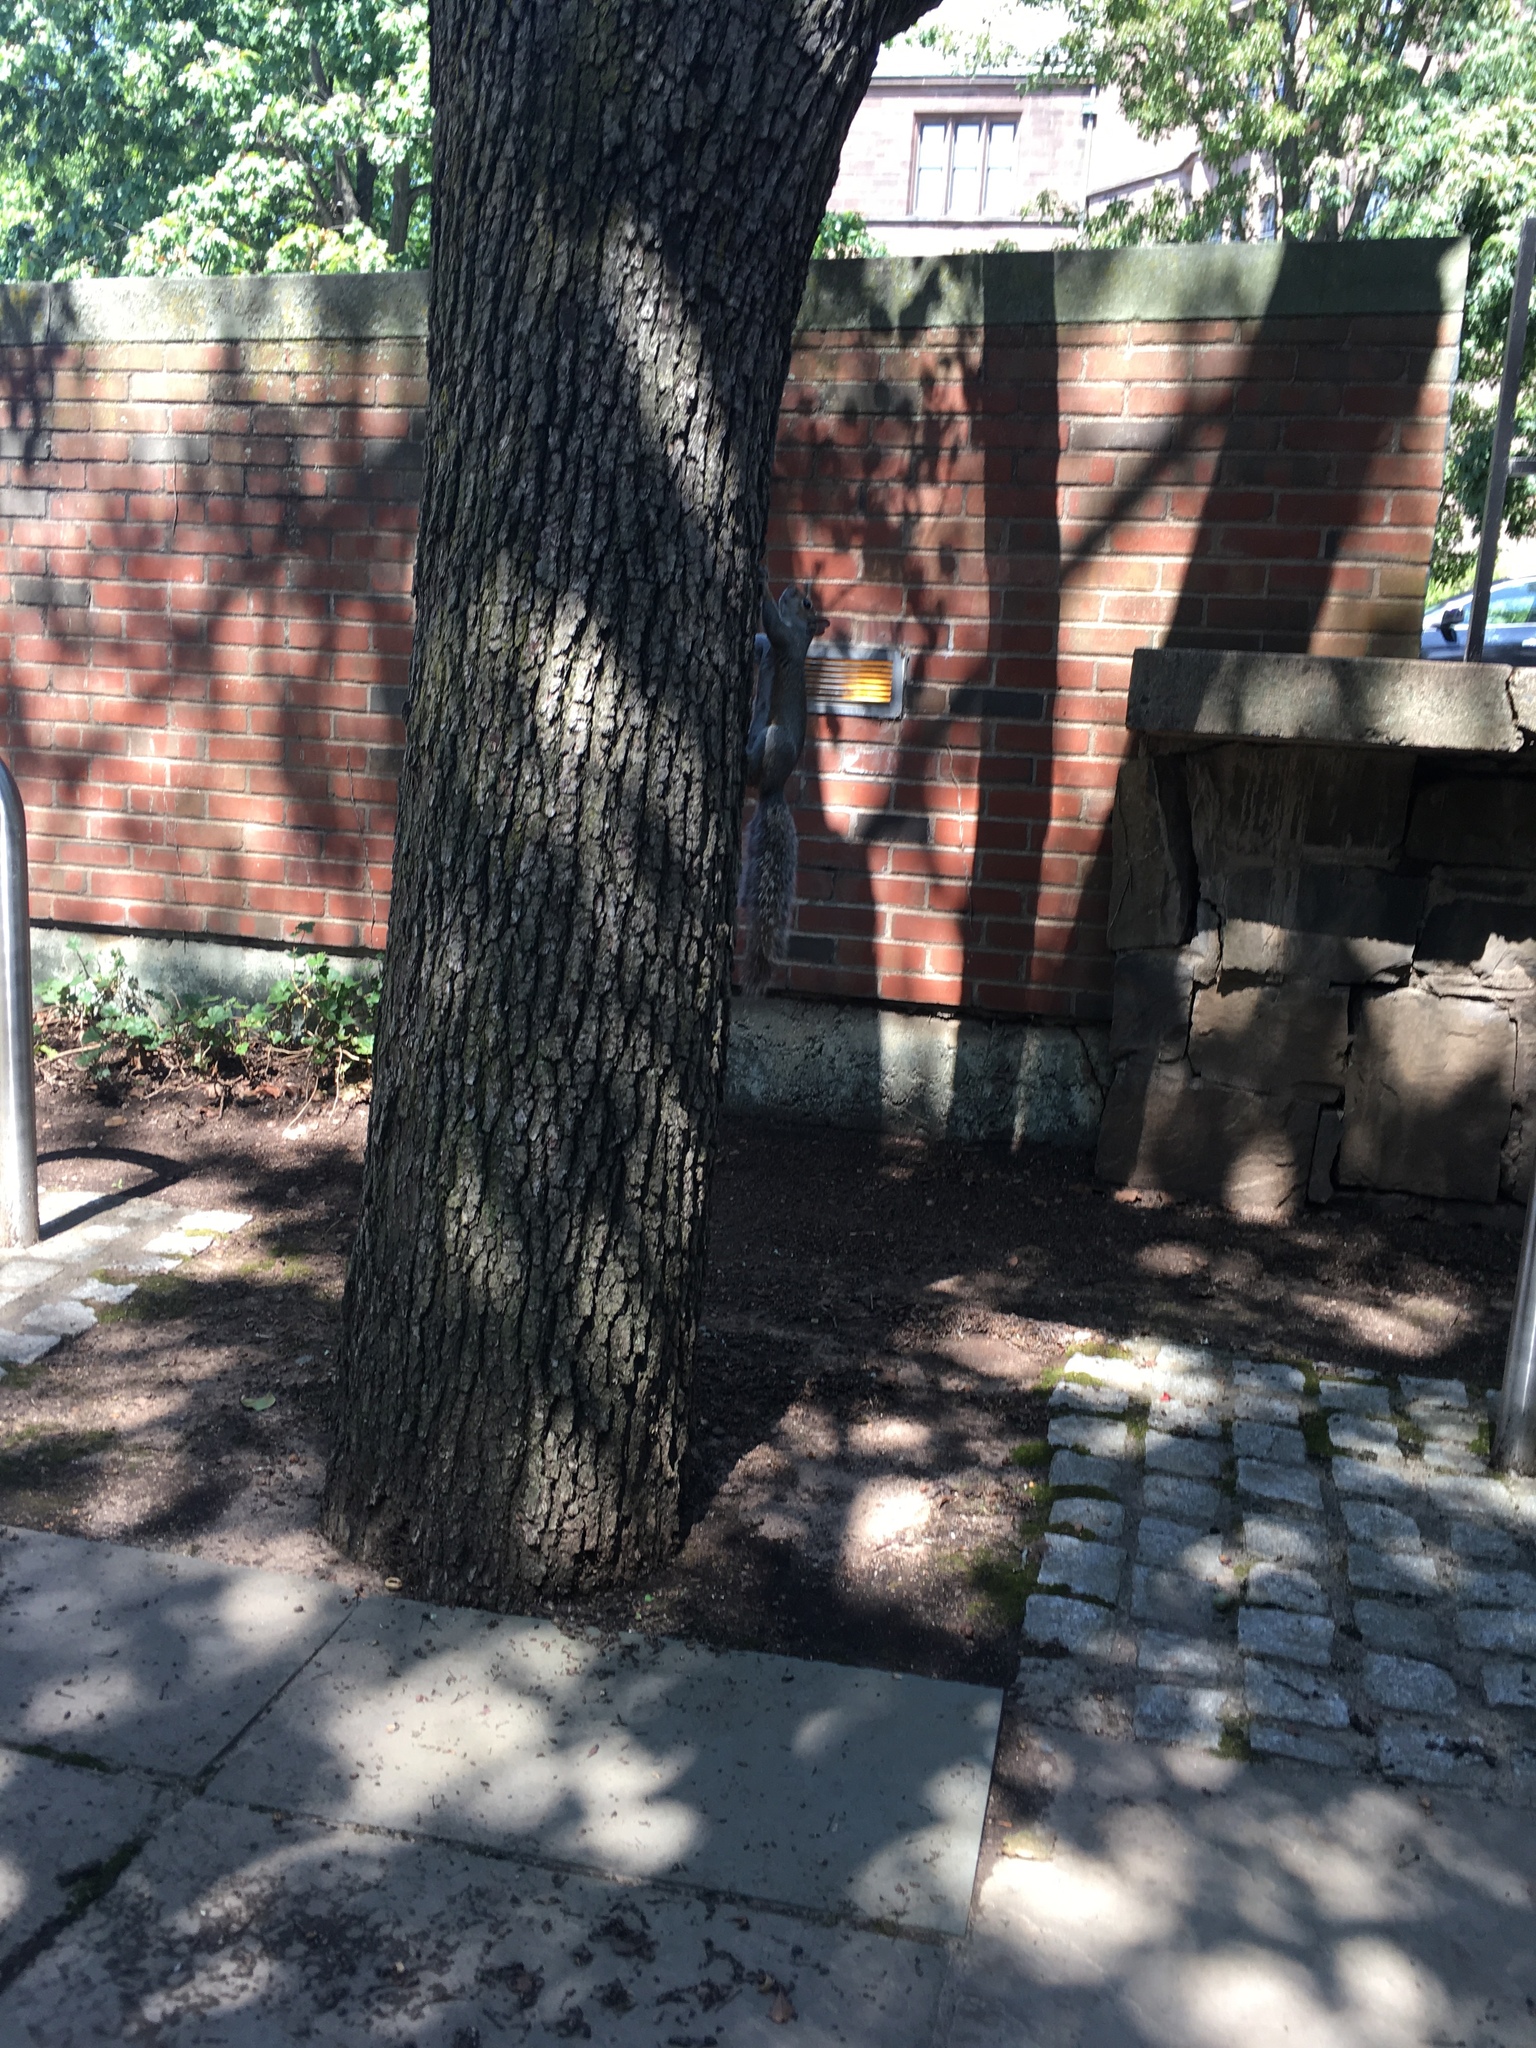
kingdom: Animalia
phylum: Chordata
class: Mammalia
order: Rodentia
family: Sciuridae
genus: Sciurus
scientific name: Sciurus carolinensis
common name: Eastern gray squirrel
